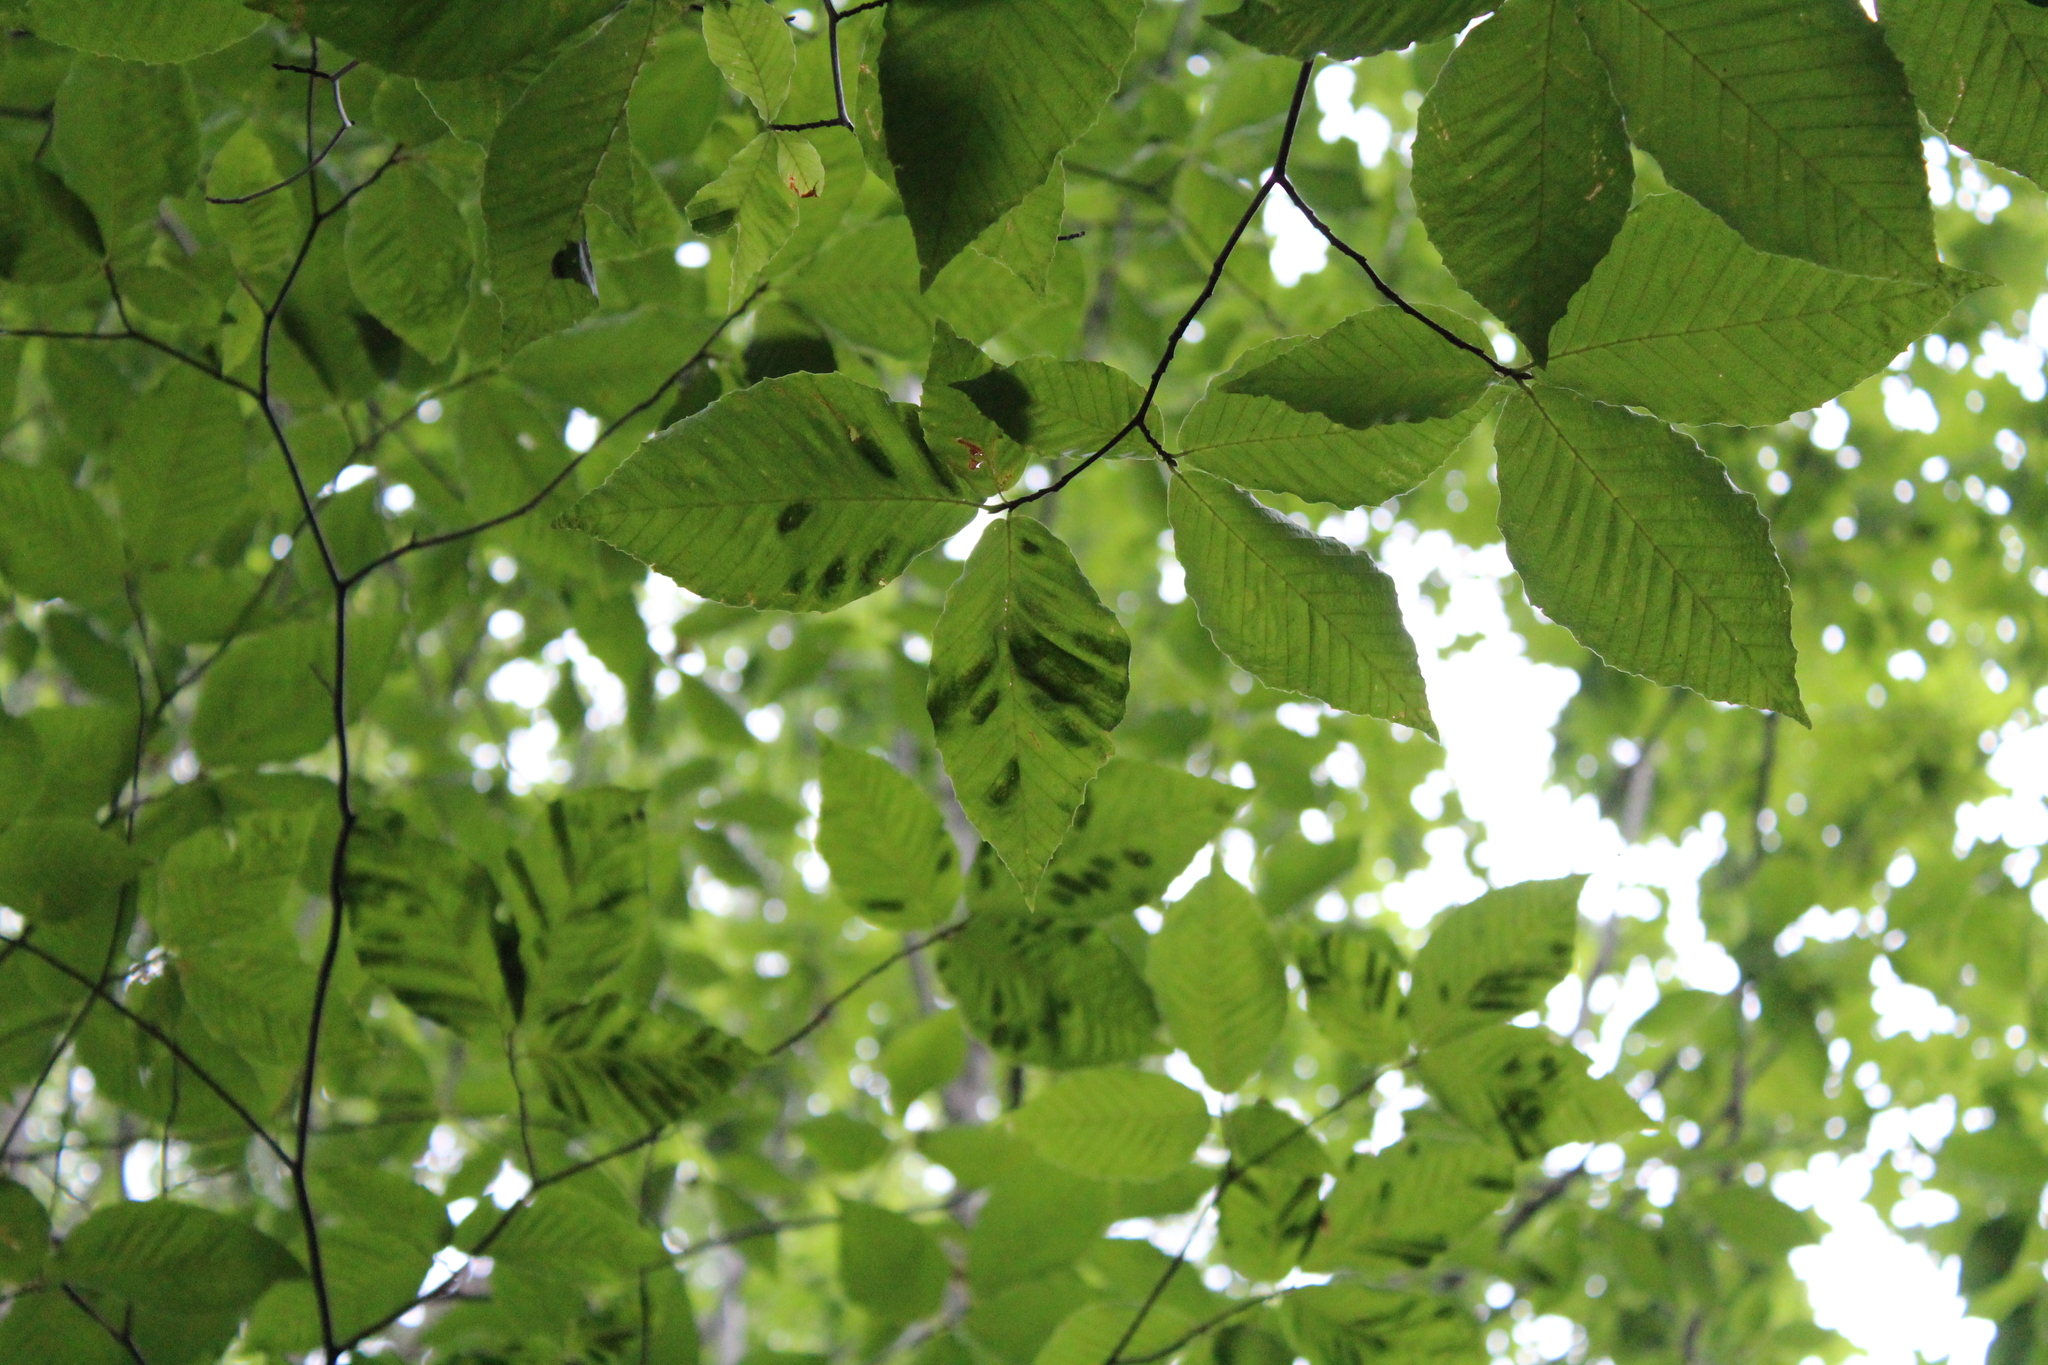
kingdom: Animalia
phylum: Nematoda
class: Chromadorea
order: Rhabditida
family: Anguinidae
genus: Litylenchus
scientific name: Litylenchus crenatae
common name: Beech leaf disease
